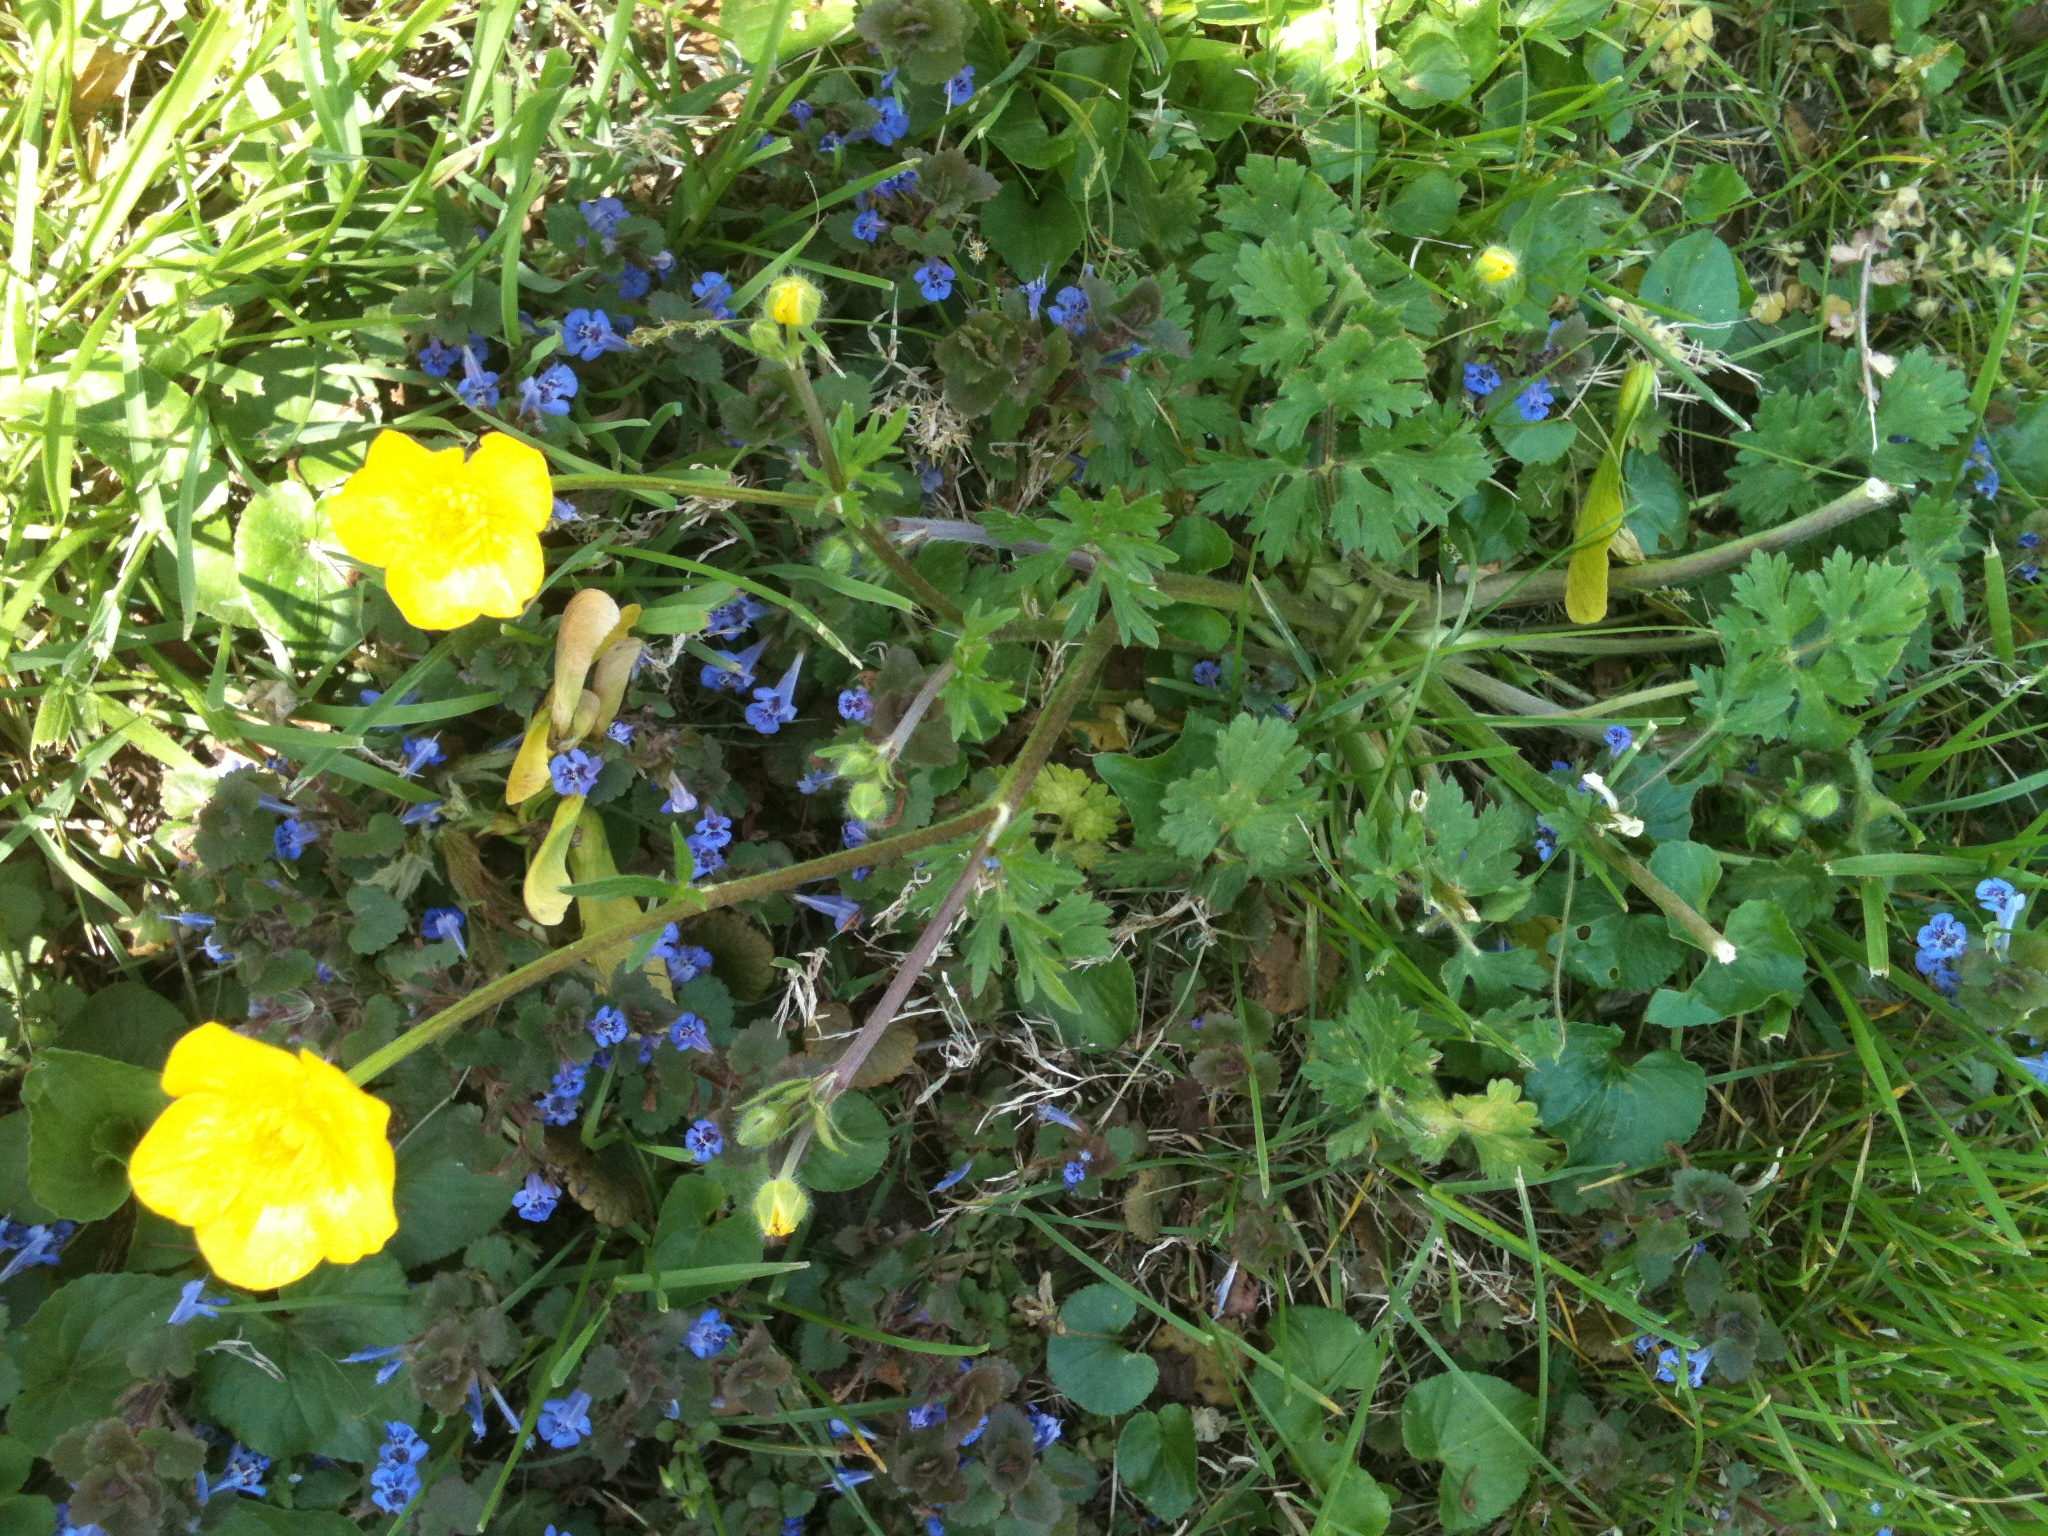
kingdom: Plantae
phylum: Tracheophyta
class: Magnoliopsida
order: Ranunculales
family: Ranunculaceae
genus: Ranunculus
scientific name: Ranunculus bulbosus
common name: Bulbous buttercup
